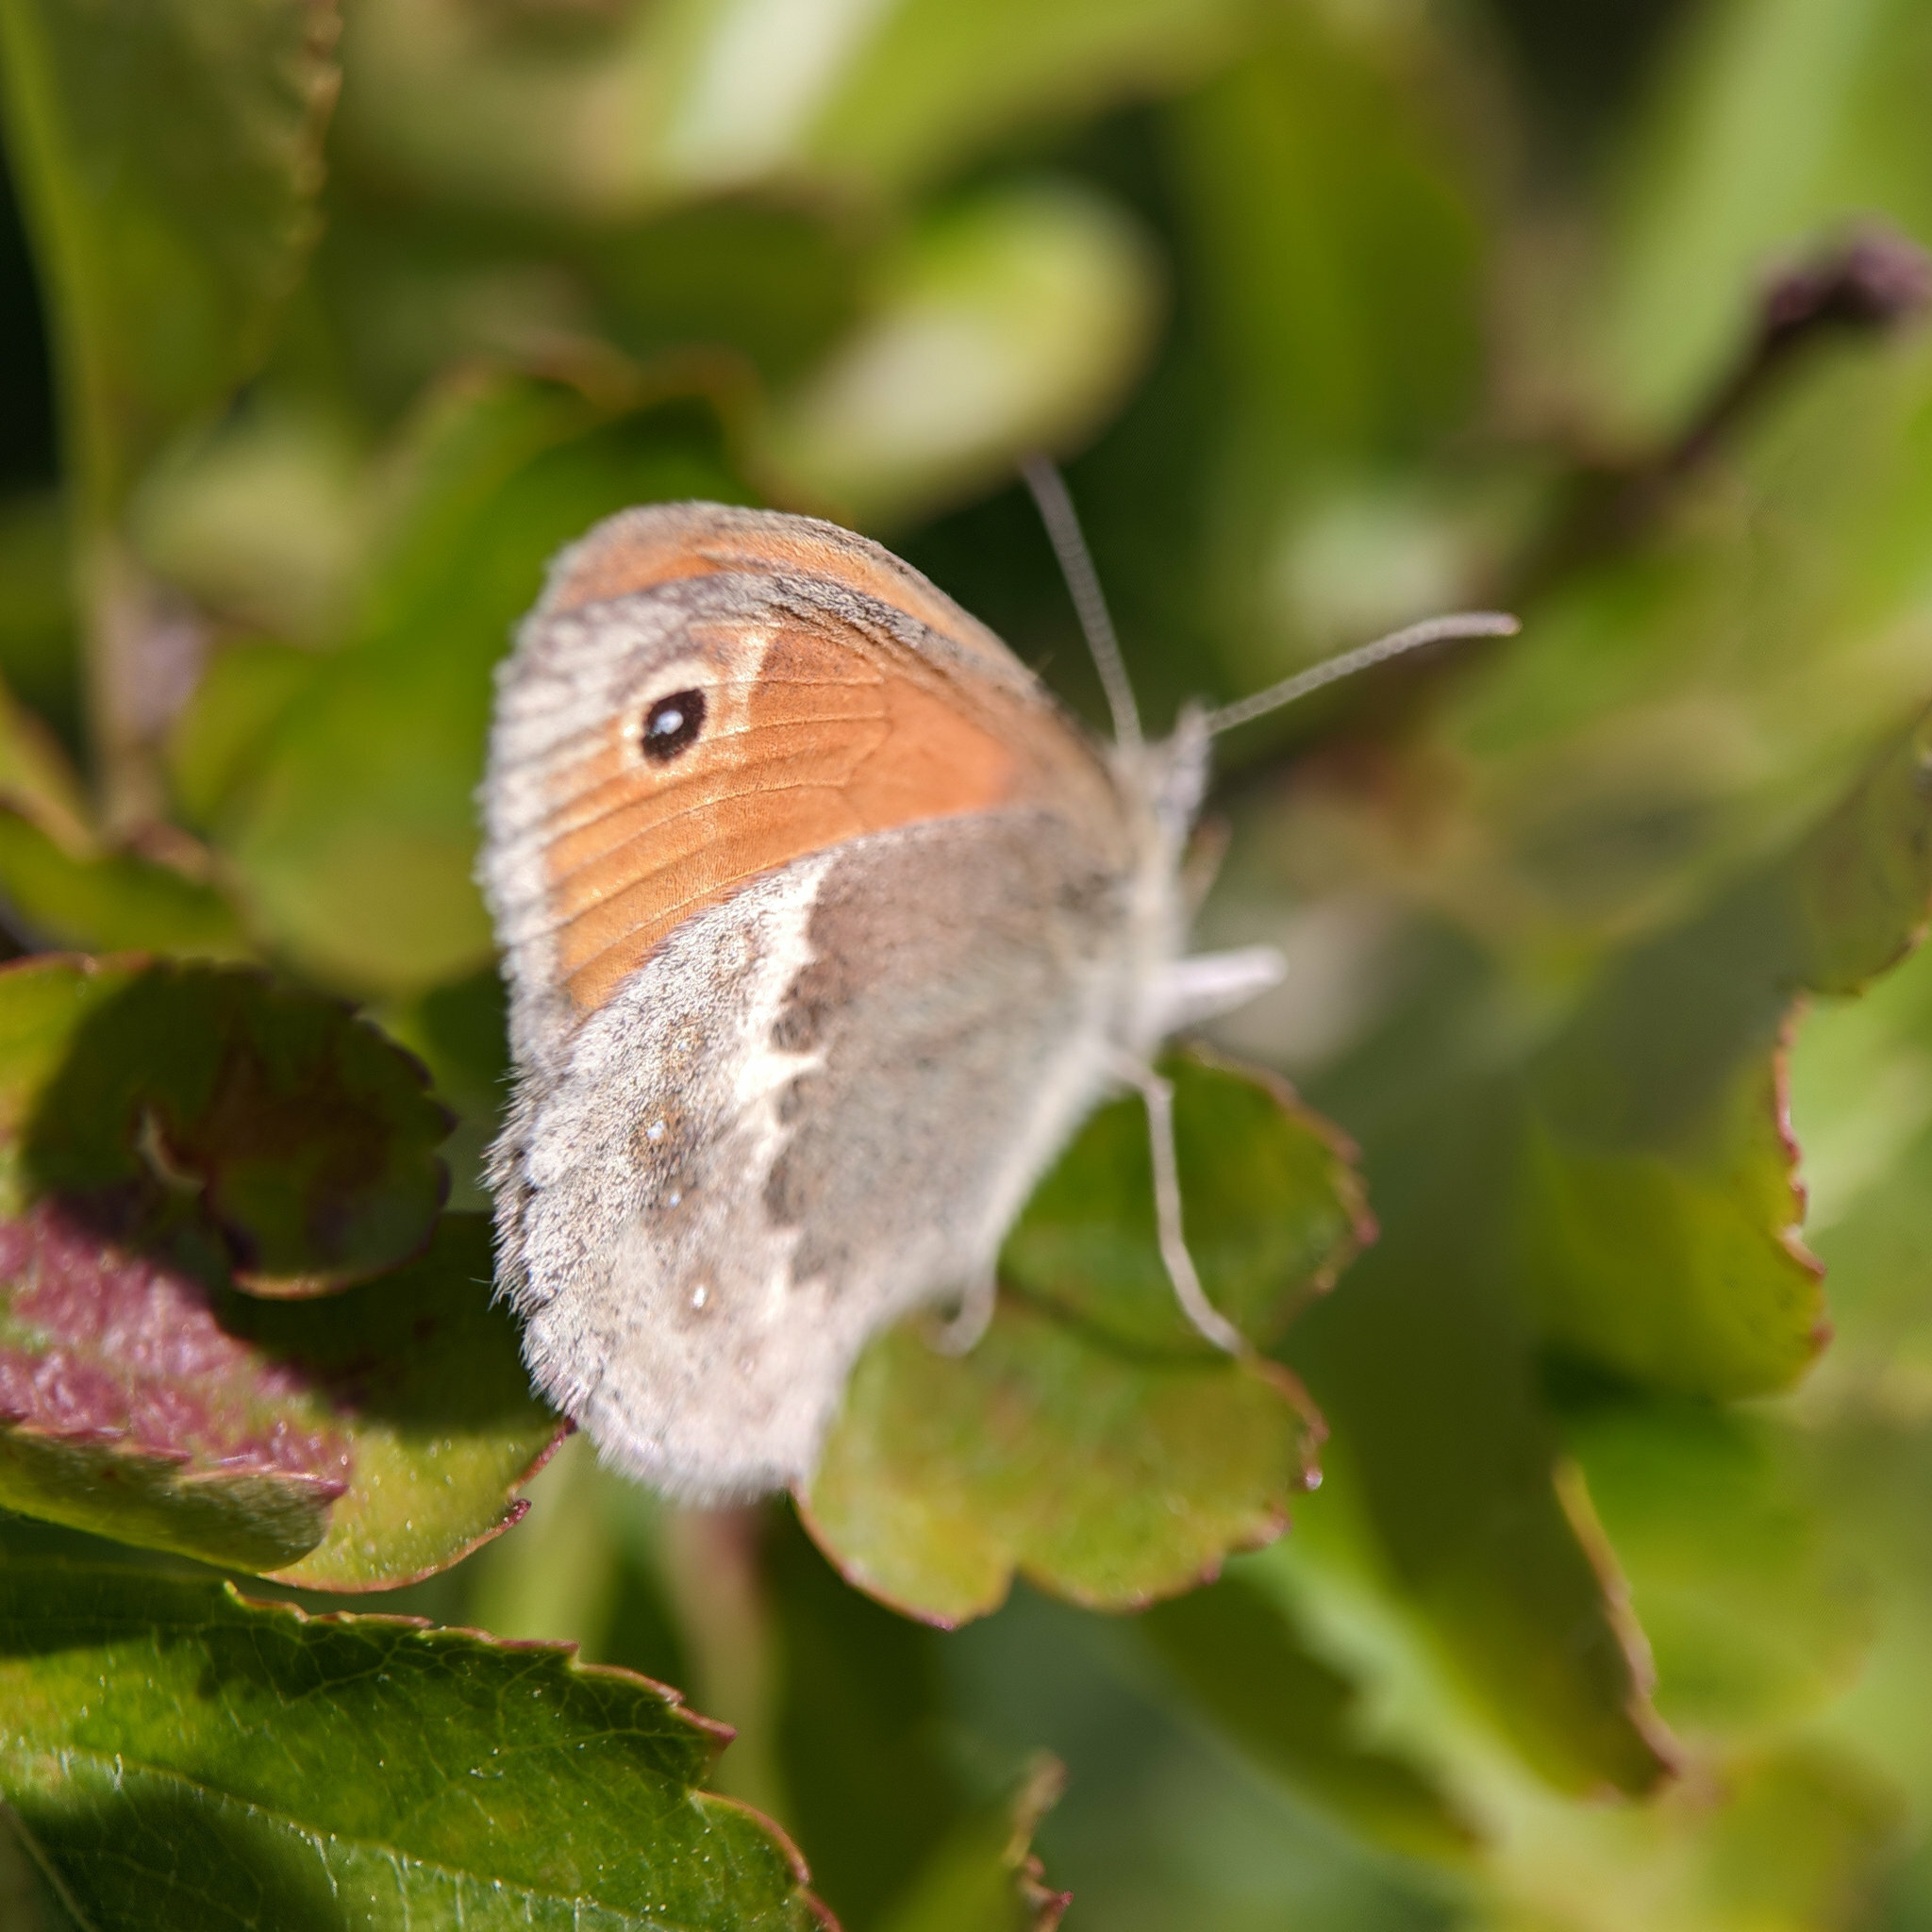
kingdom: Animalia
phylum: Arthropoda
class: Insecta
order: Lepidoptera
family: Nymphalidae
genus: Coenonympha
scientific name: Coenonympha pamphilus
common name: Small heath
